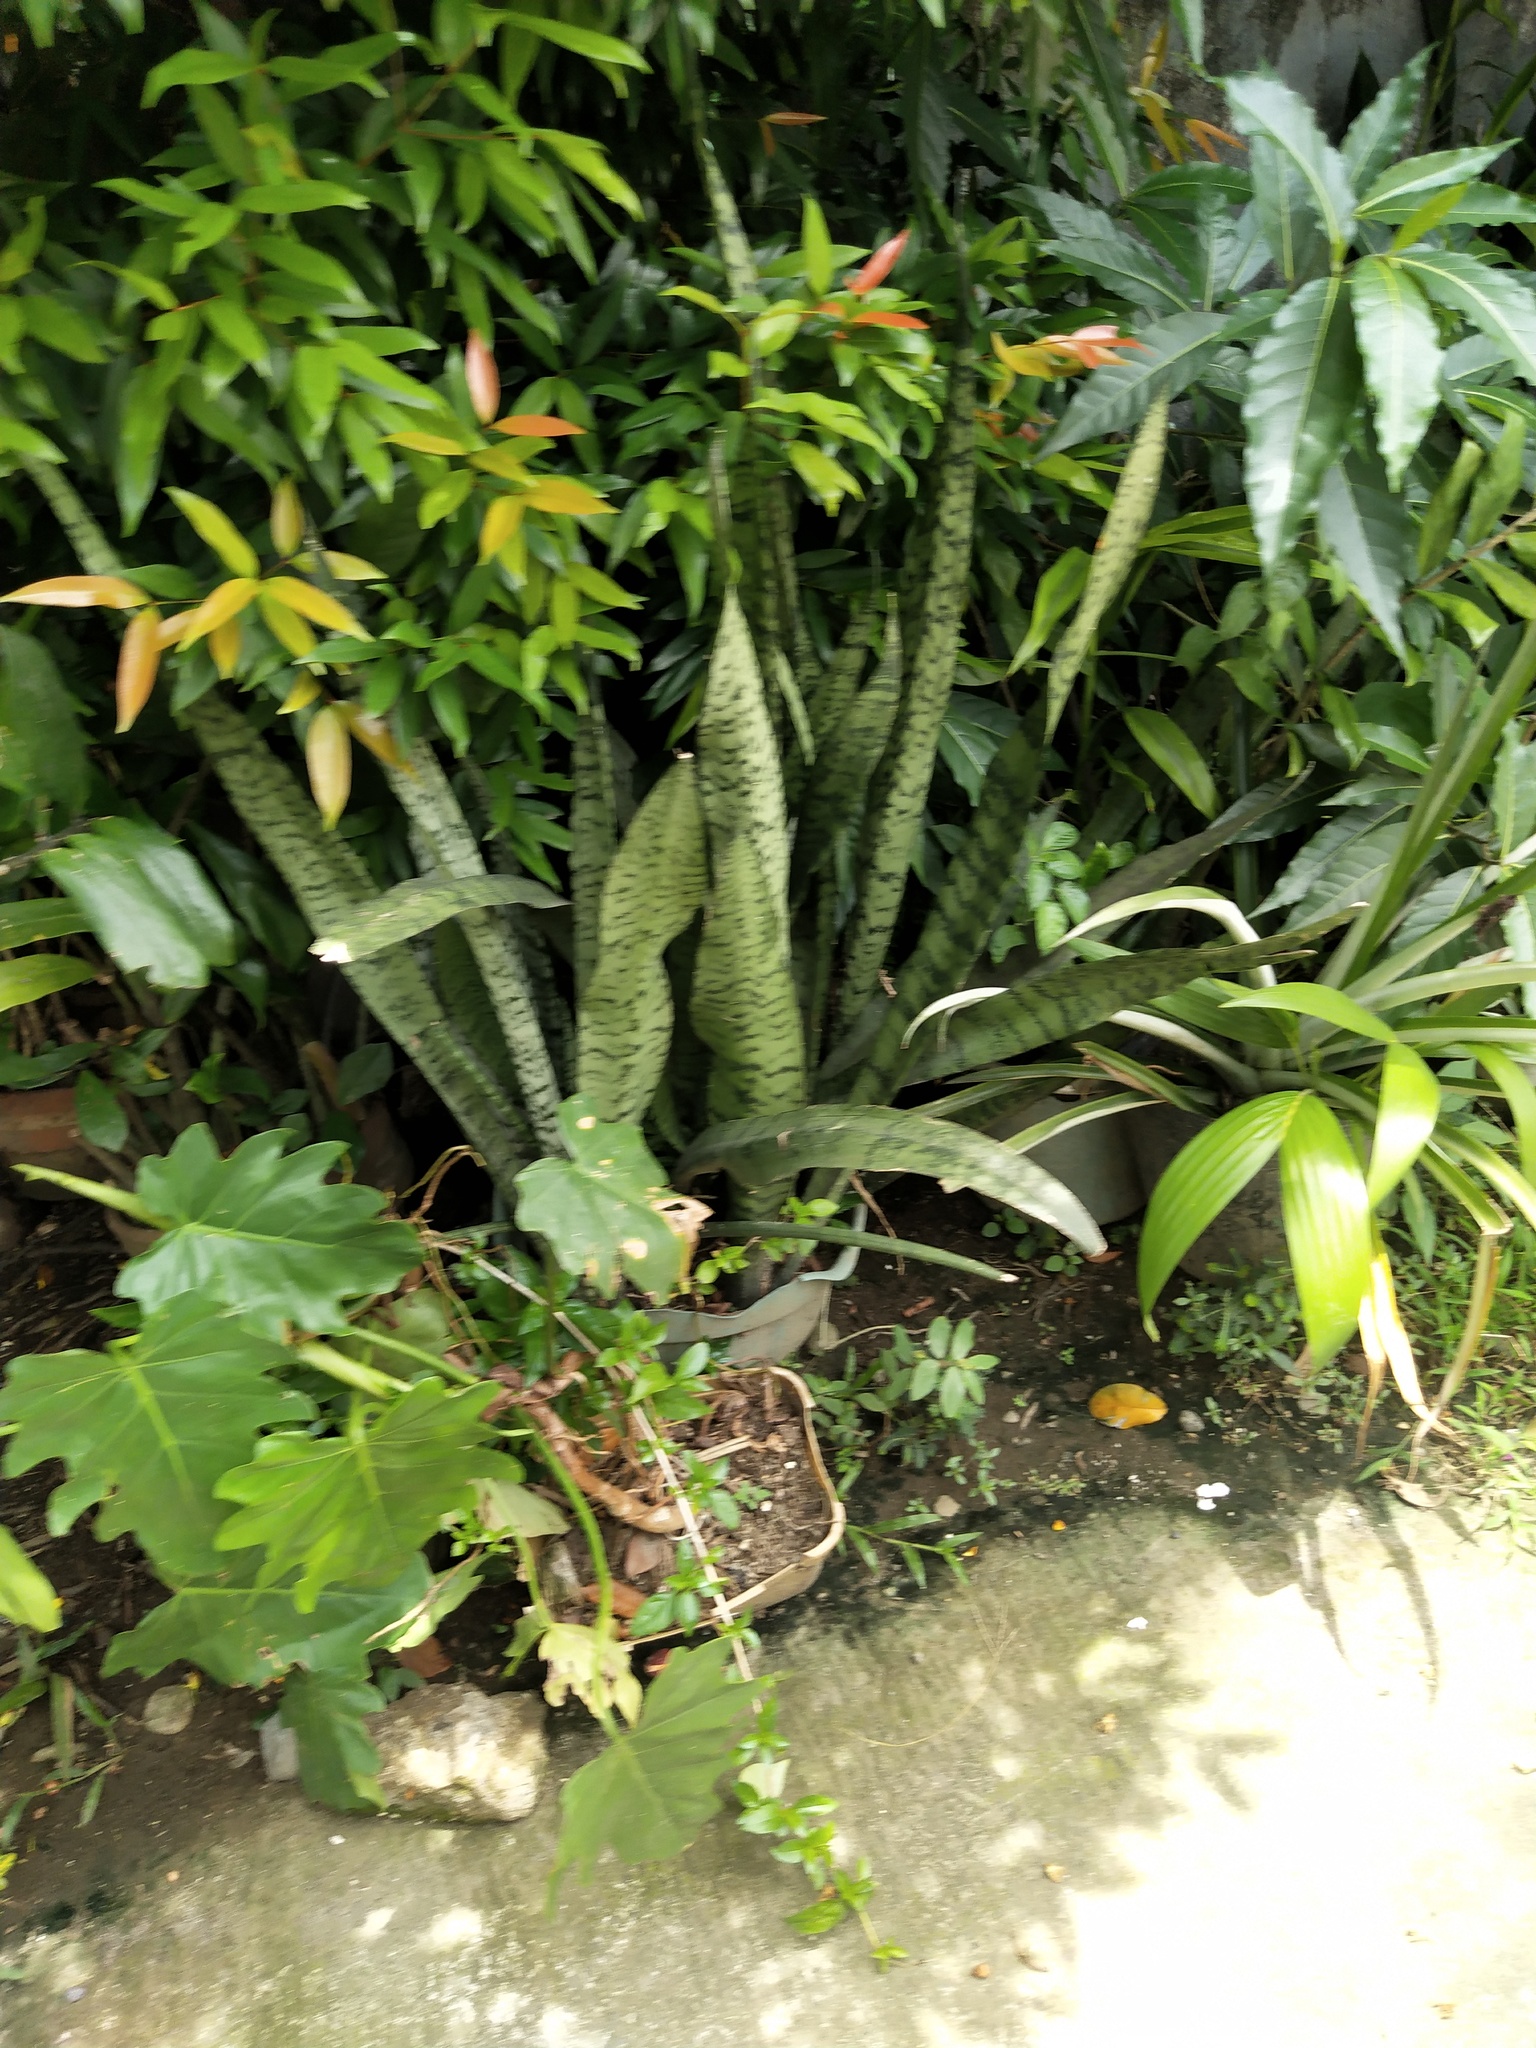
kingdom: Plantae
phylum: Tracheophyta
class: Liliopsida
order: Asparagales
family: Asparagaceae
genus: Dracaena
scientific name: Dracaena trifasciata
